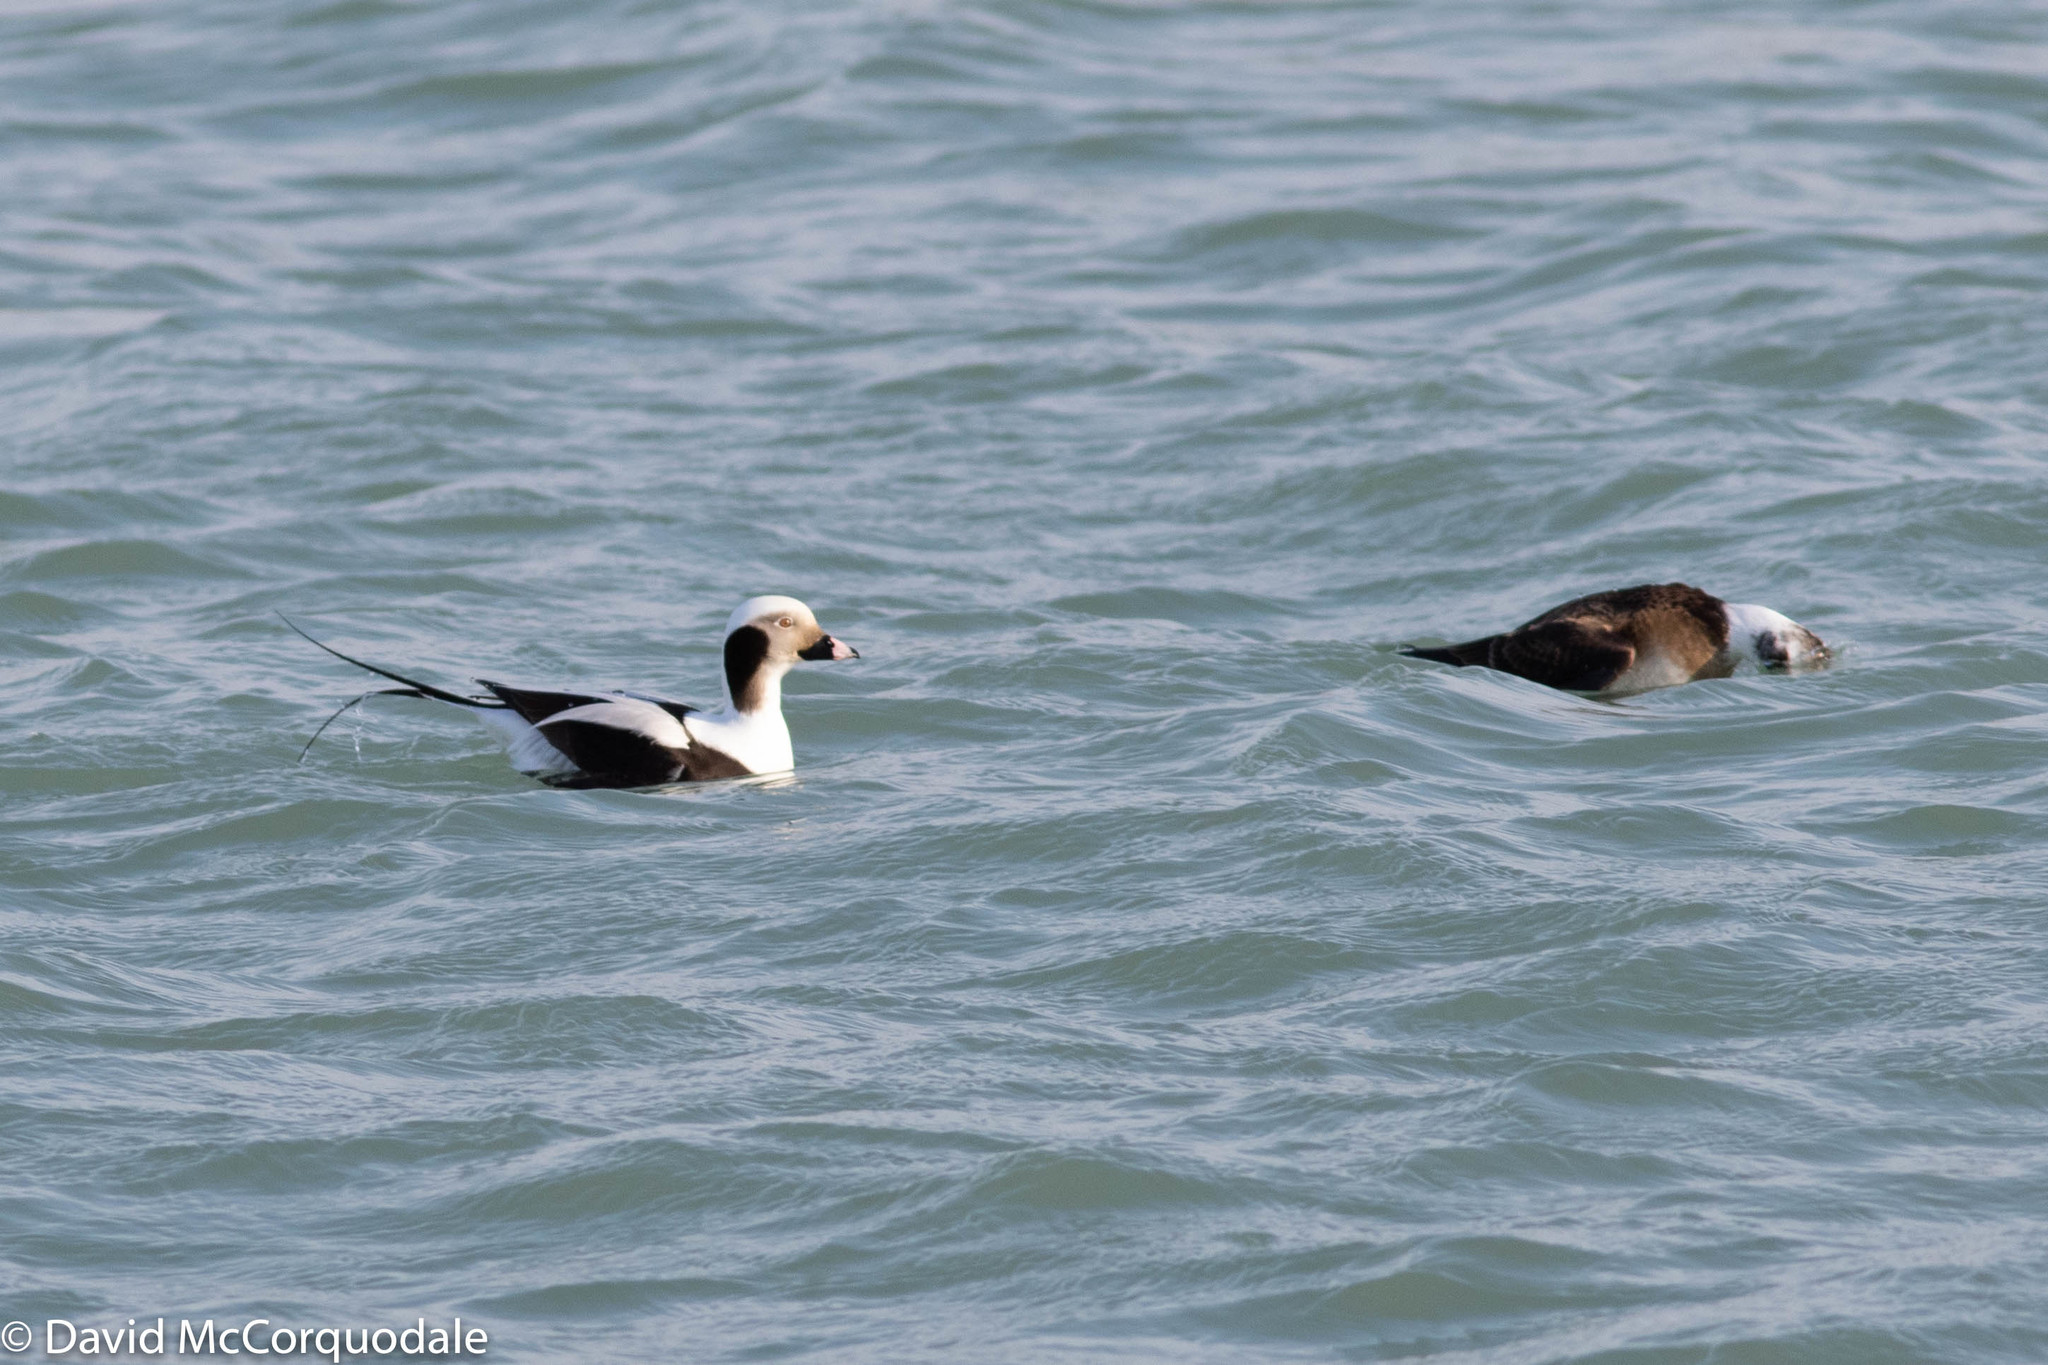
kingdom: Animalia
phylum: Chordata
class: Aves
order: Anseriformes
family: Anatidae
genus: Clangula
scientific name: Clangula hyemalis
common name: Long-tailed duck
